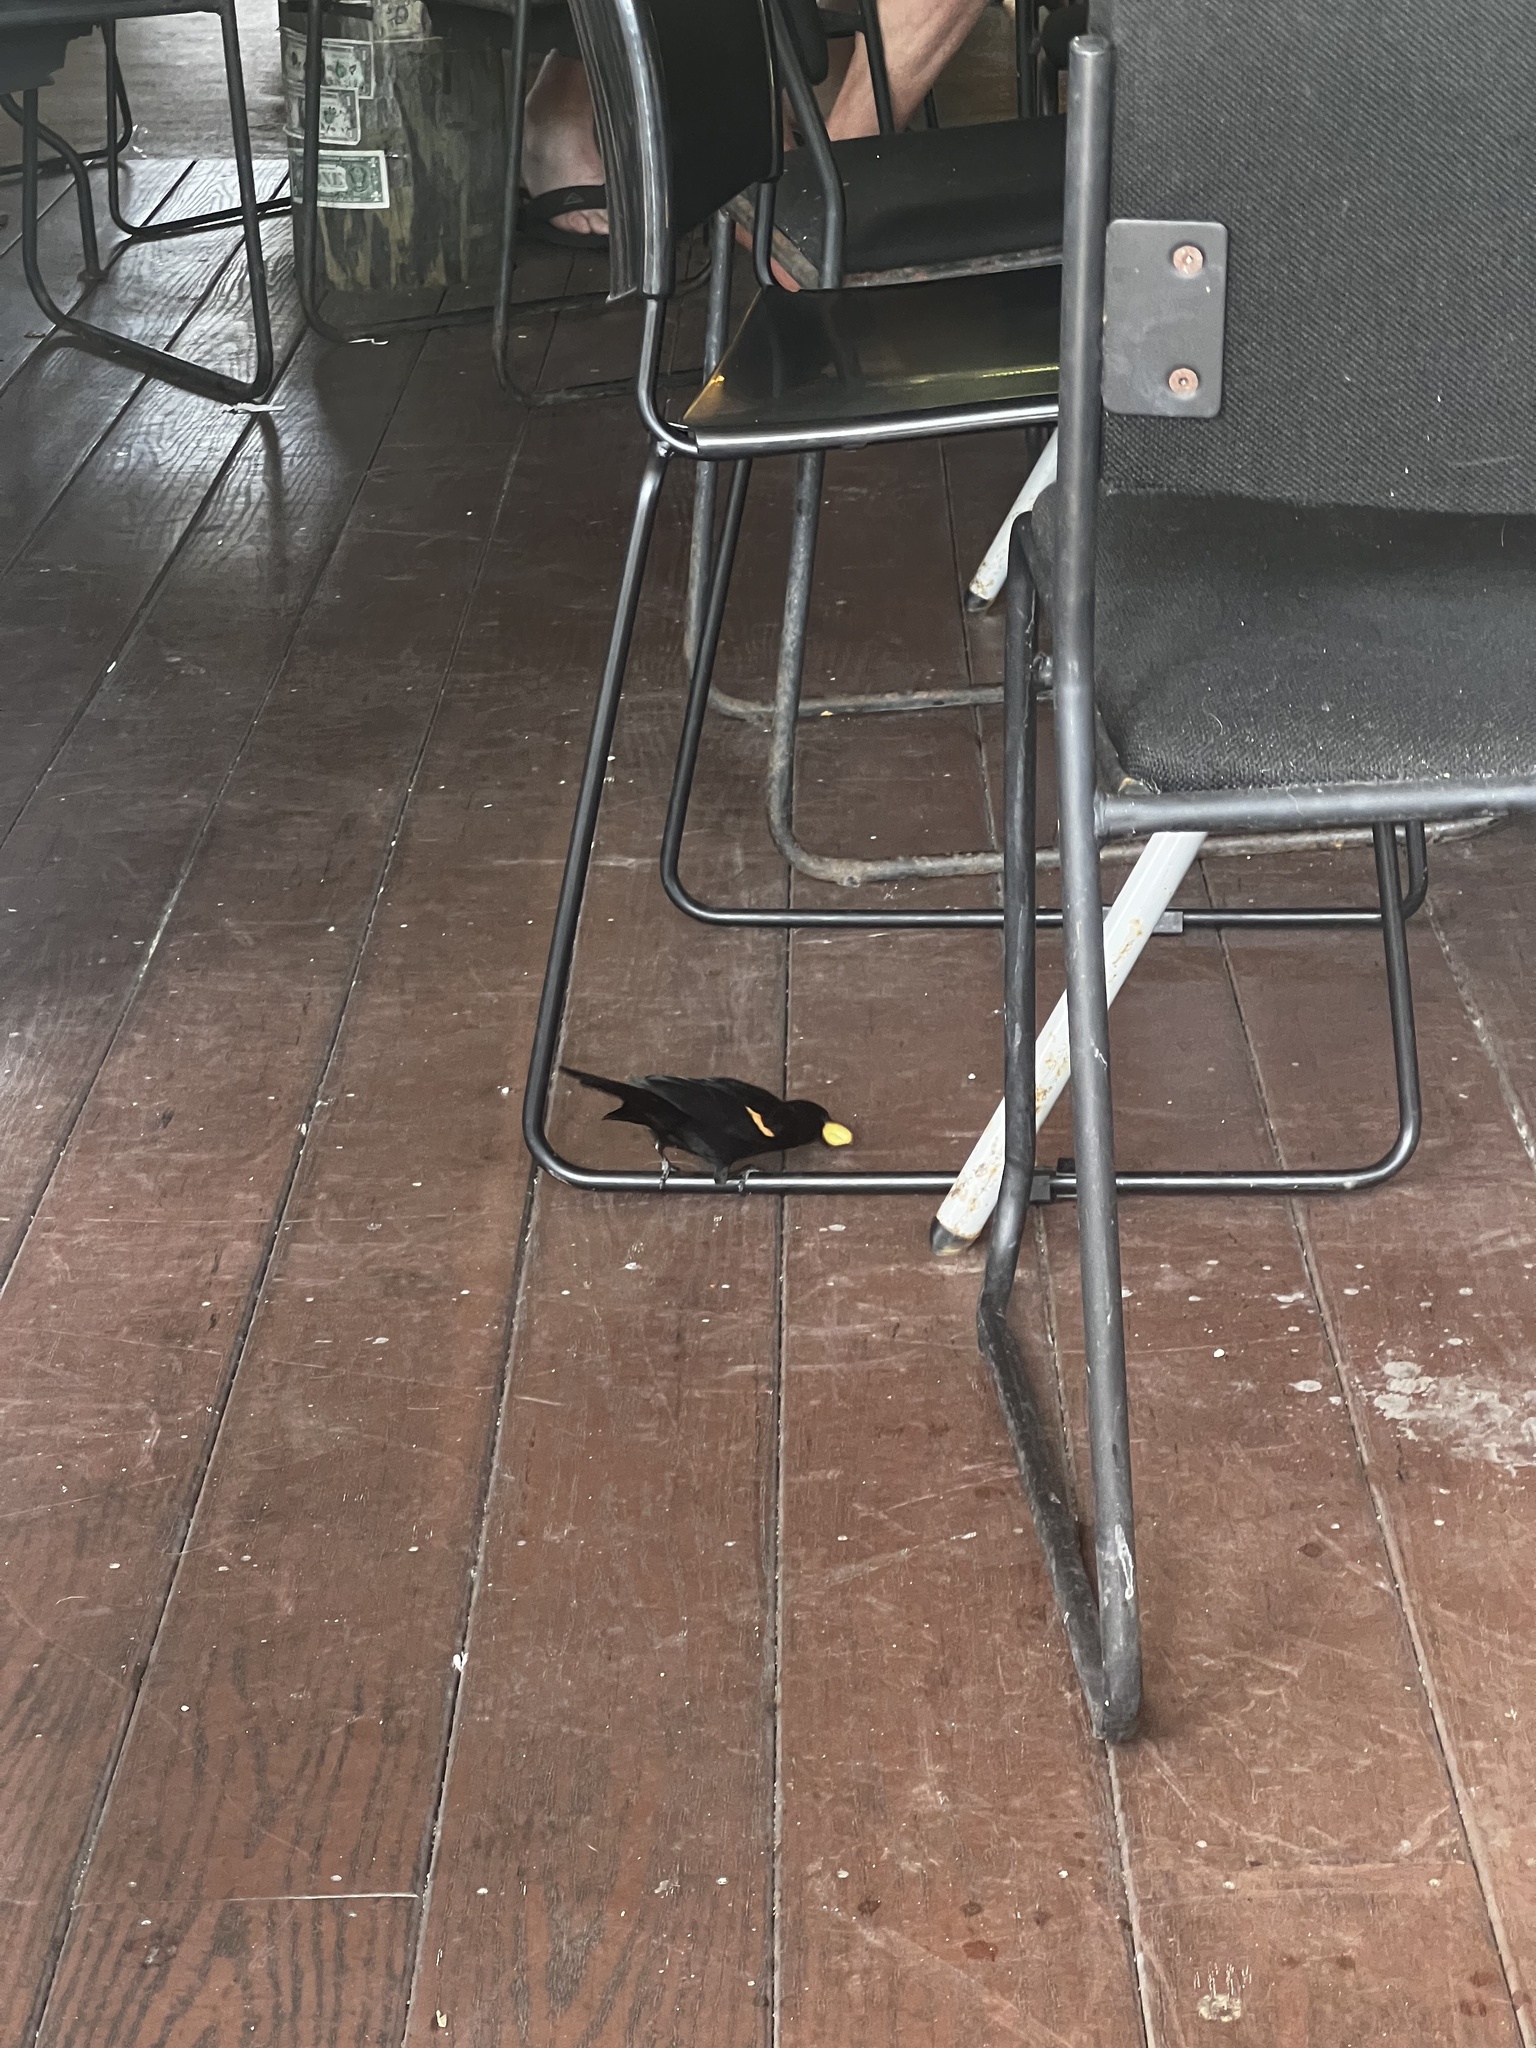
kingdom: Animalia
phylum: Chordata
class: Aves
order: Passeriformes
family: Icteridae
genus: Agelaius
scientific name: Agelaius phoeniceus
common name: Red-winged blackbird
